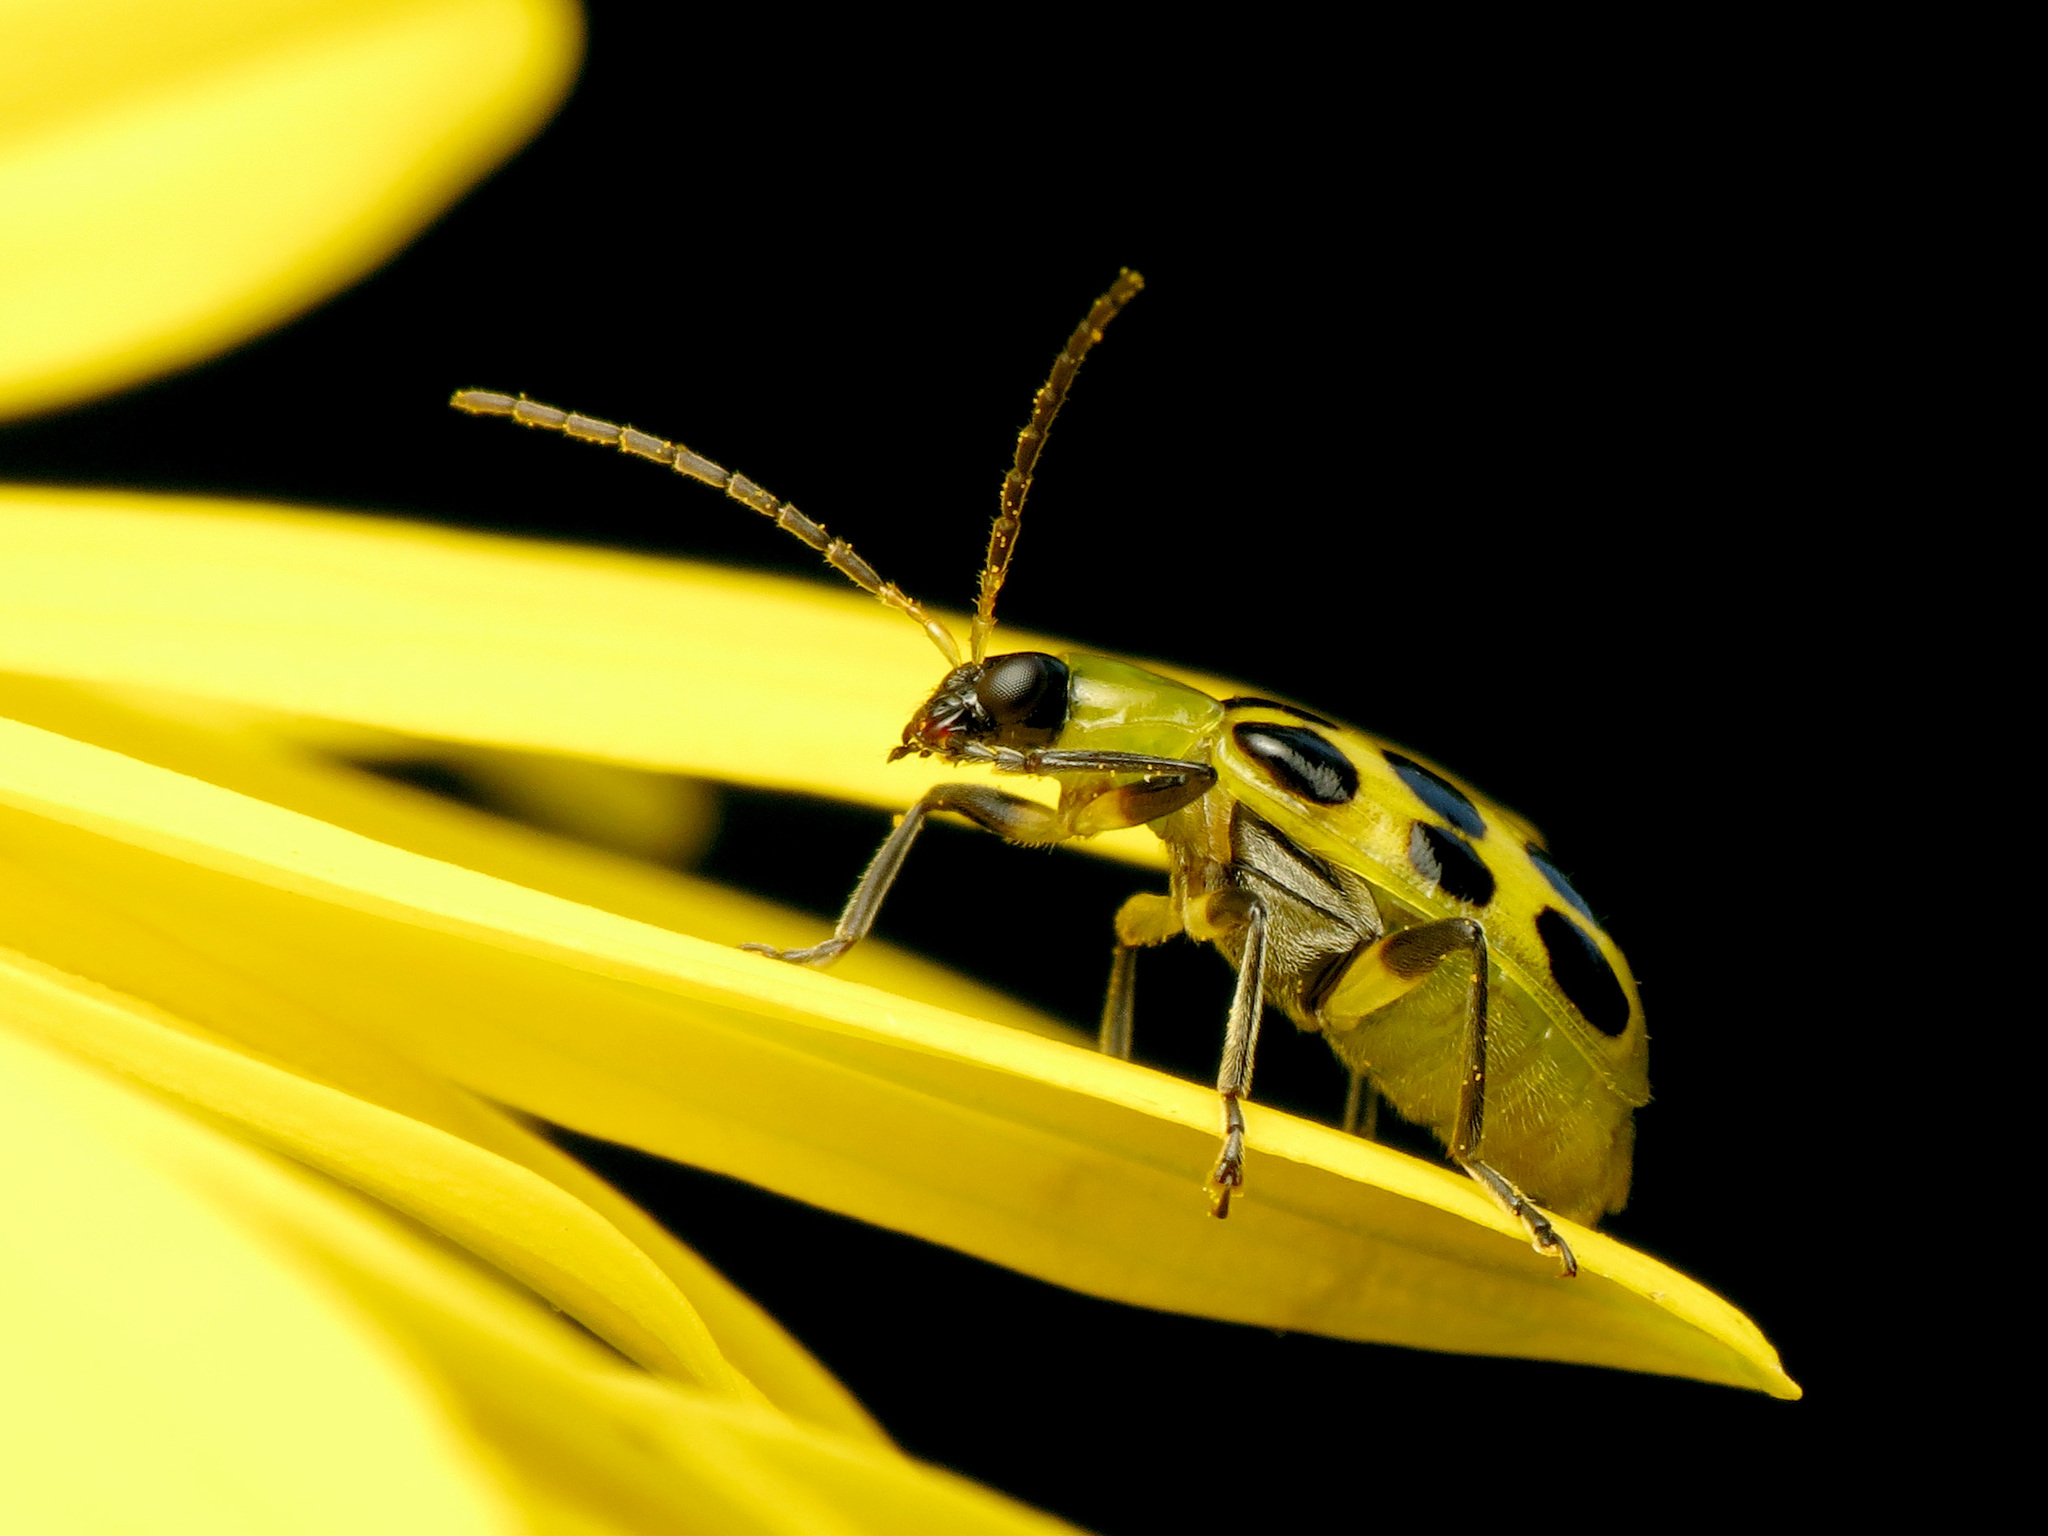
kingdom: Animalia
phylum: Arthropoda
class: Insecta
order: Coleoptera
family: Chrysomelidae
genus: Diabrotica
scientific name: Diabrotica undecimpunctata
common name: Spotted cucumber beetle
